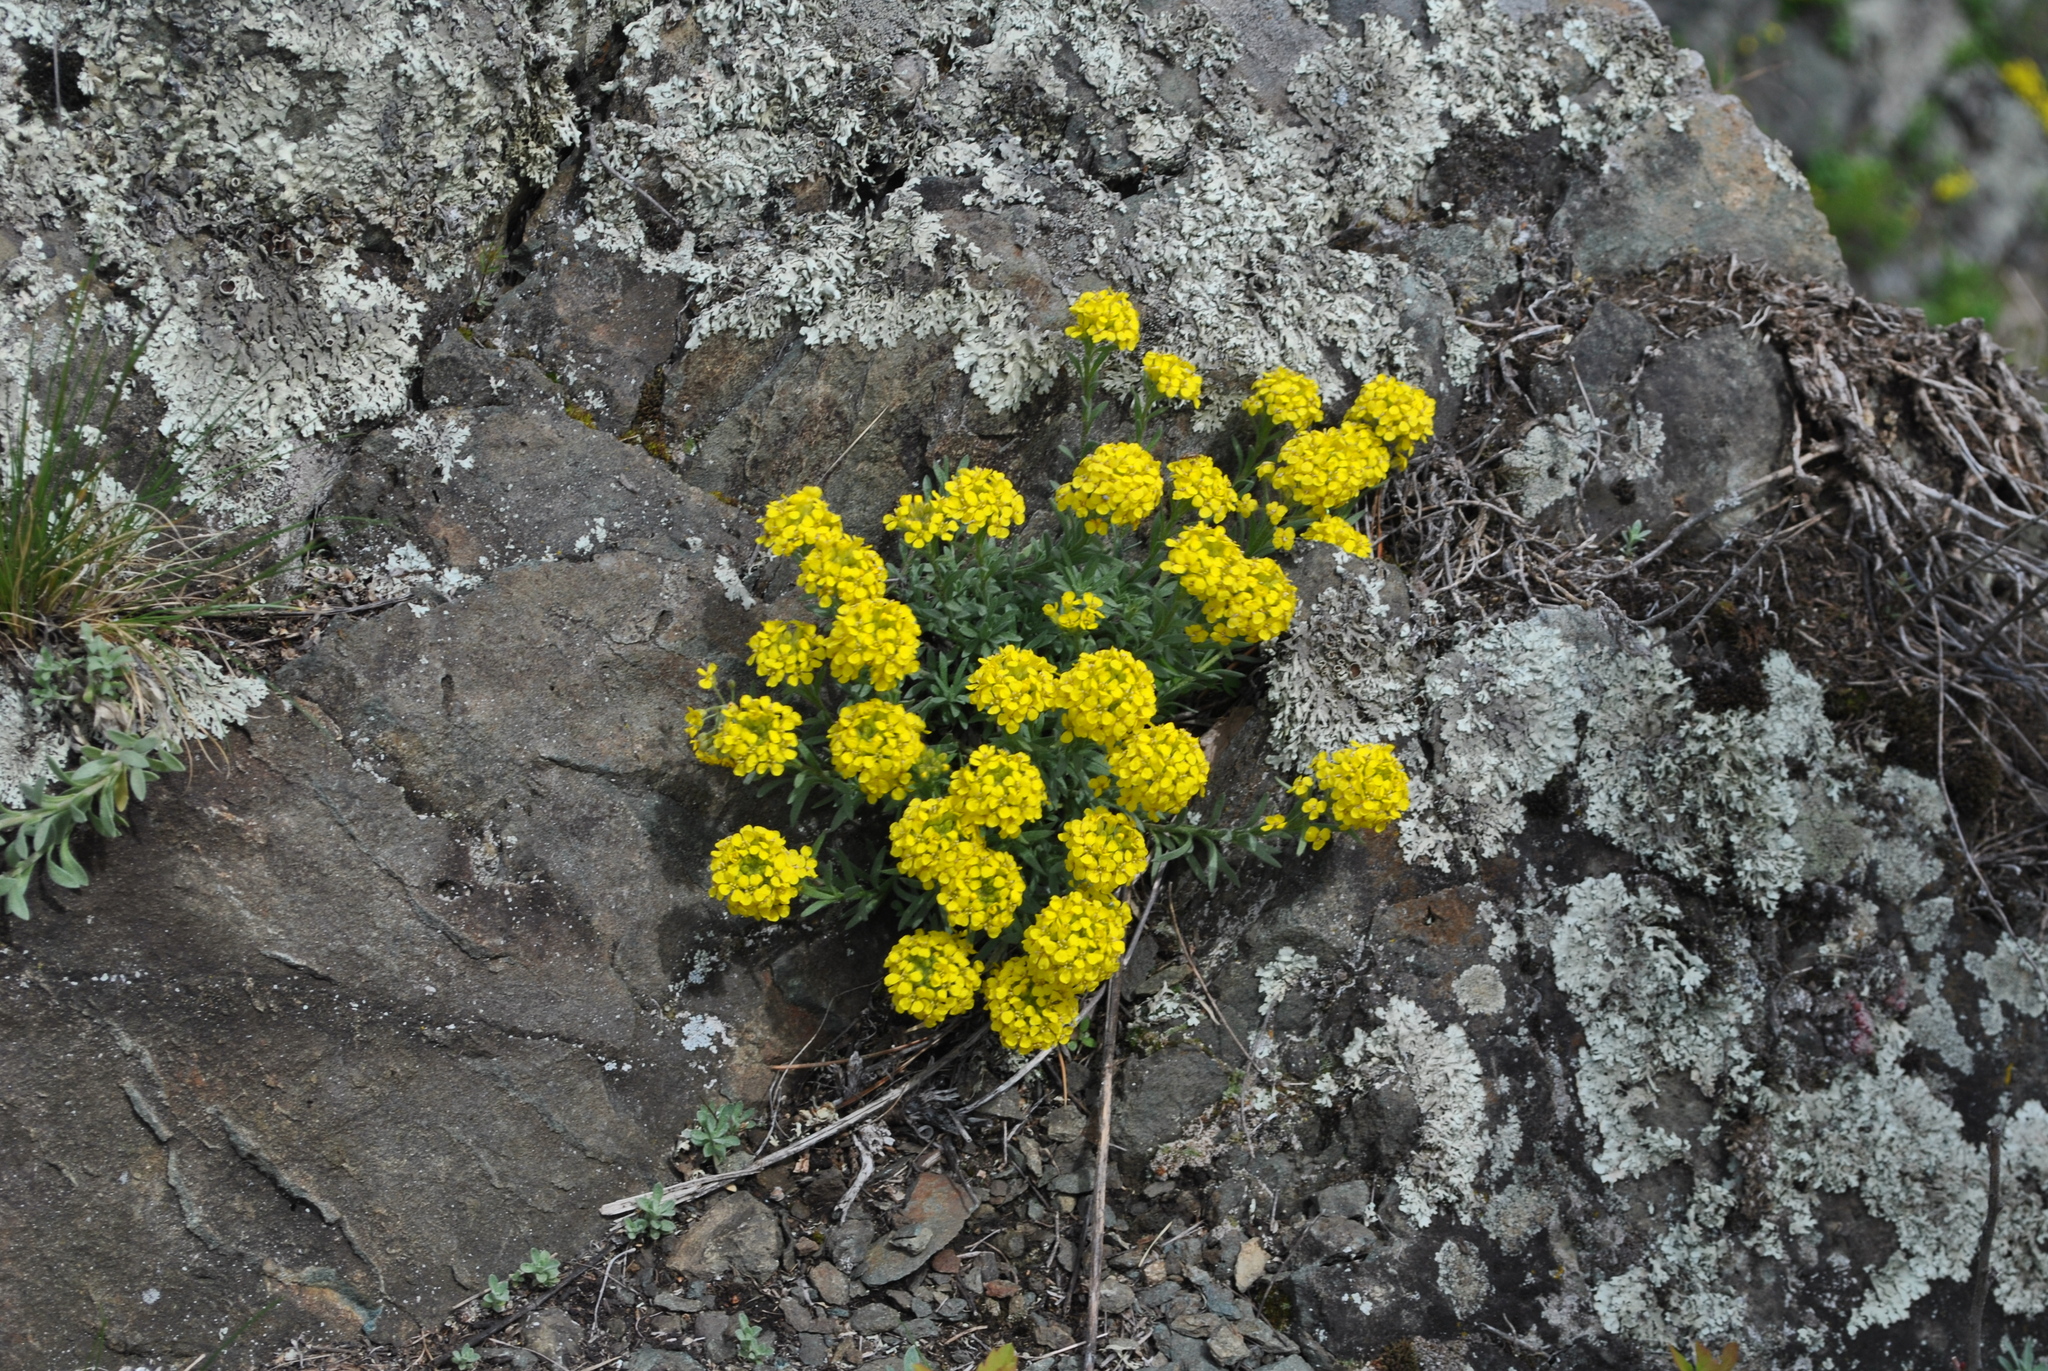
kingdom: Plantae
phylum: Tracheophyta
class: Magnoliopsida
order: Brassicales
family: Brassicaceae
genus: Alyssum
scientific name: Alyssum lenense
